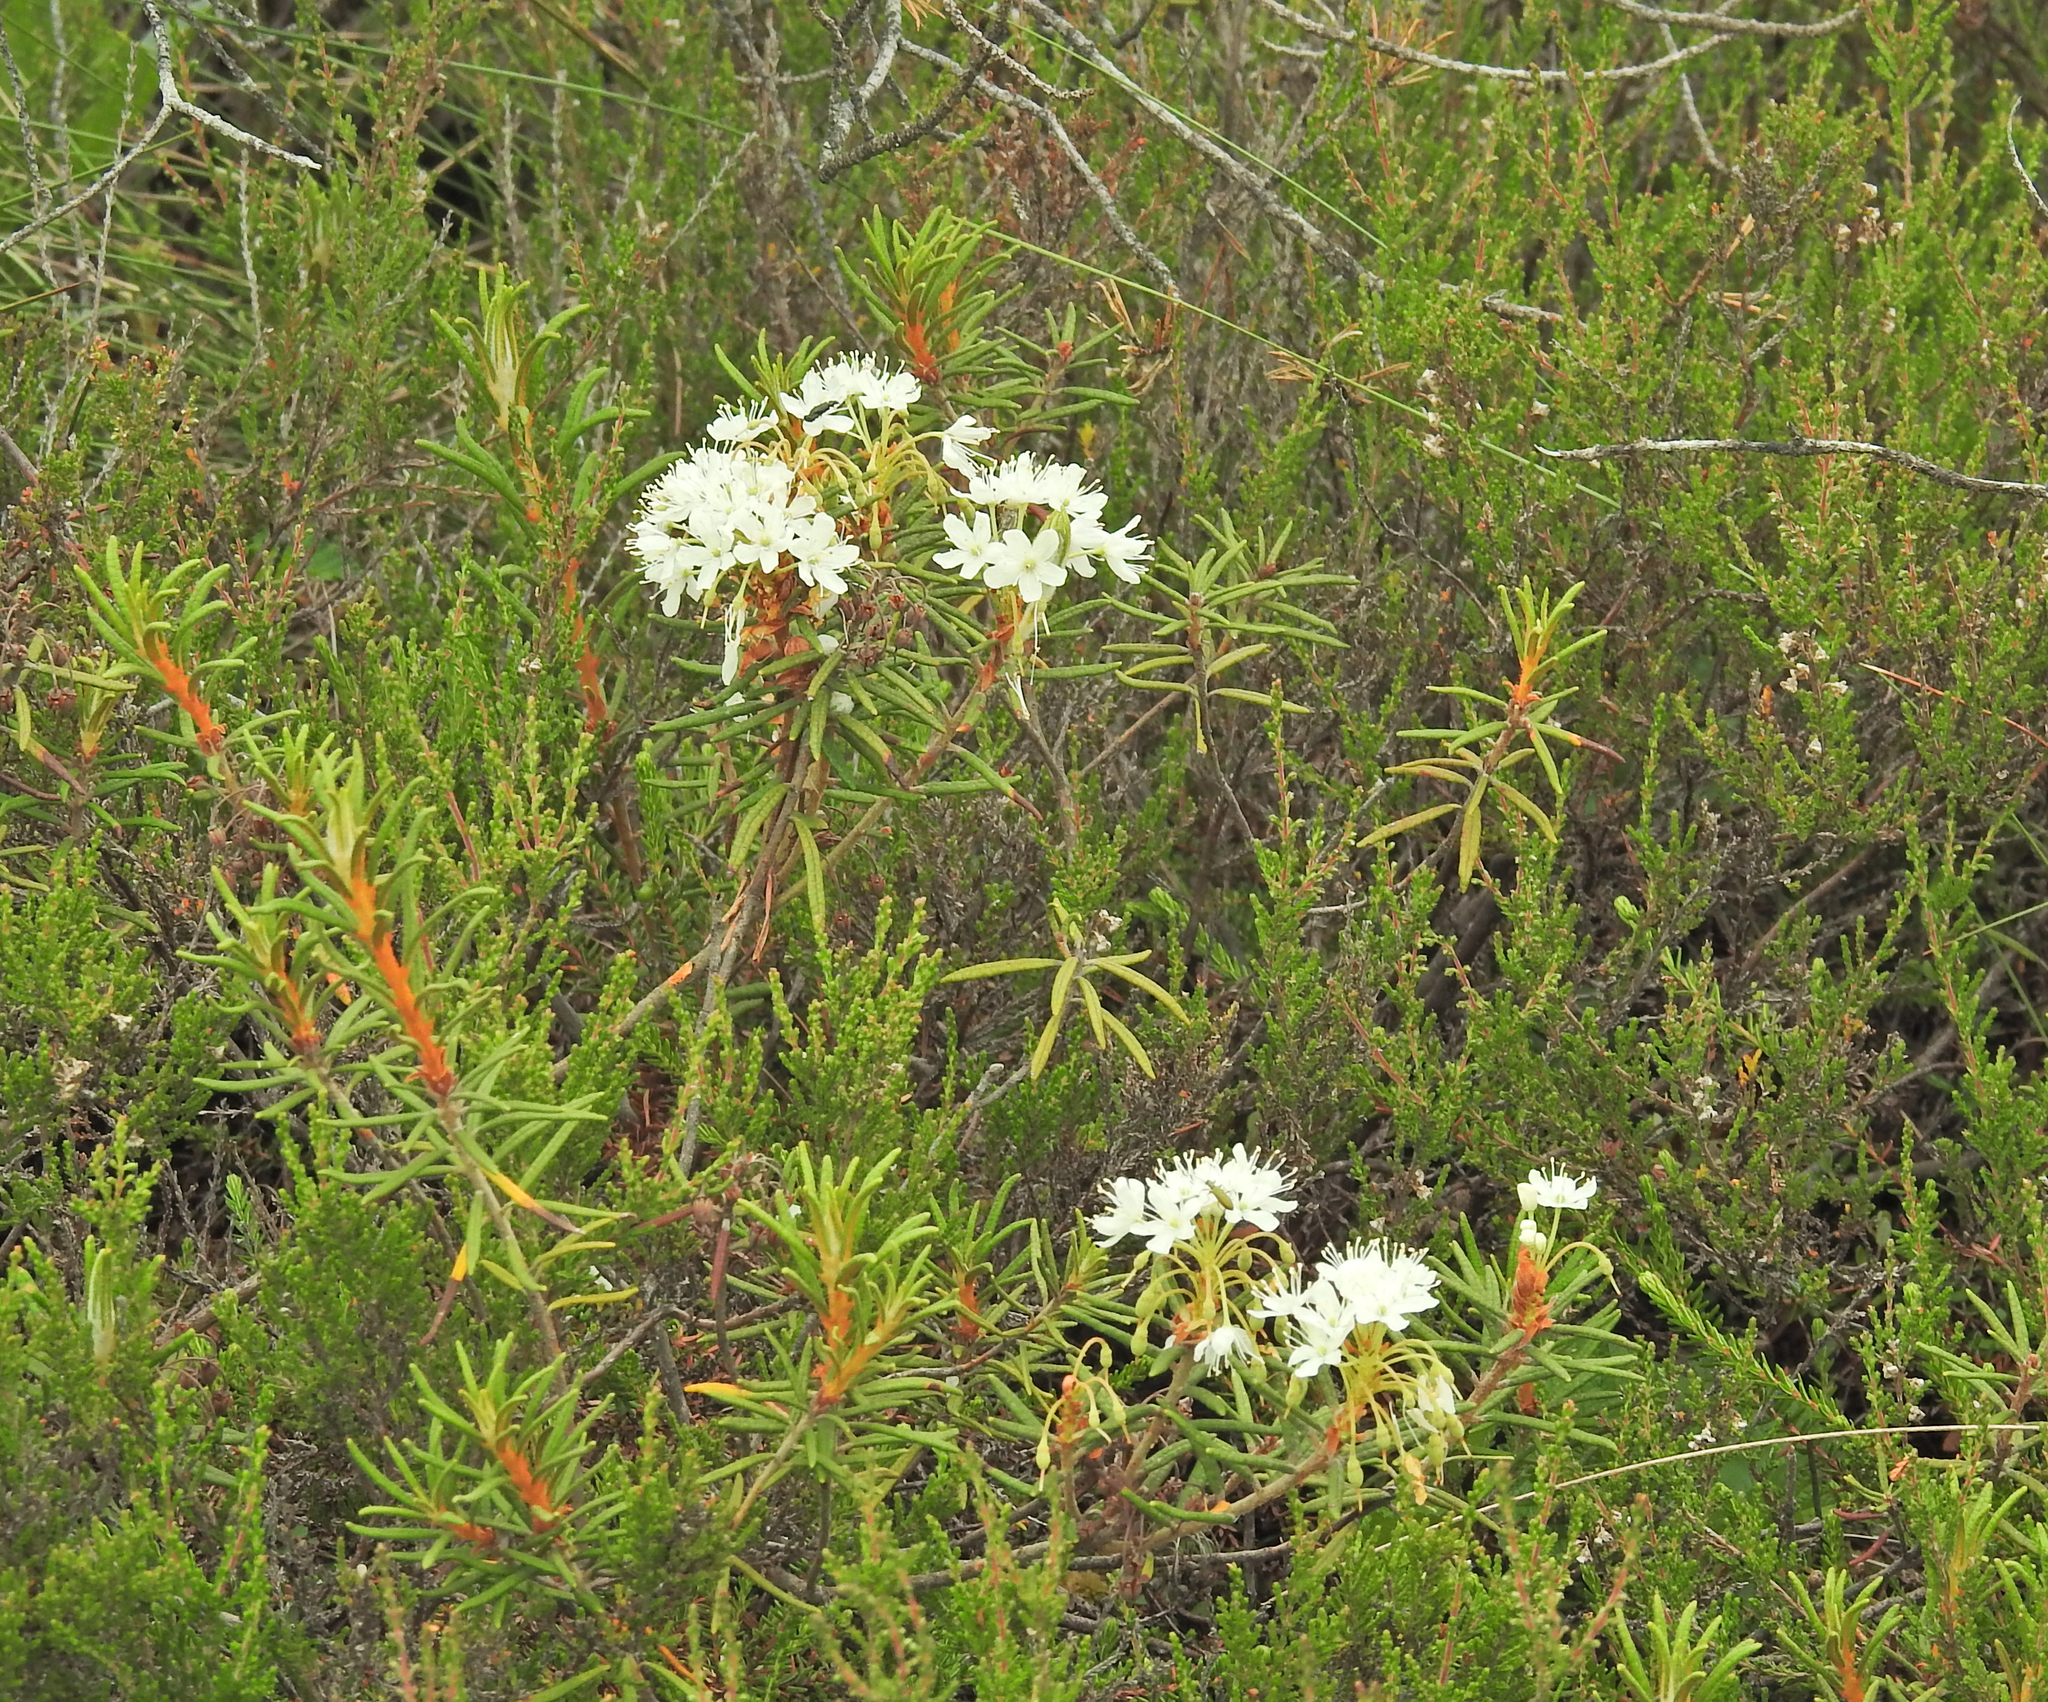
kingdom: Plantae
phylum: Tracheophyta
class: Magnoliopsida
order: Ericales
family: Ericaceae
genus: Rhododendron
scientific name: Rhododendron tomentosum
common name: Marsh labrador tea
